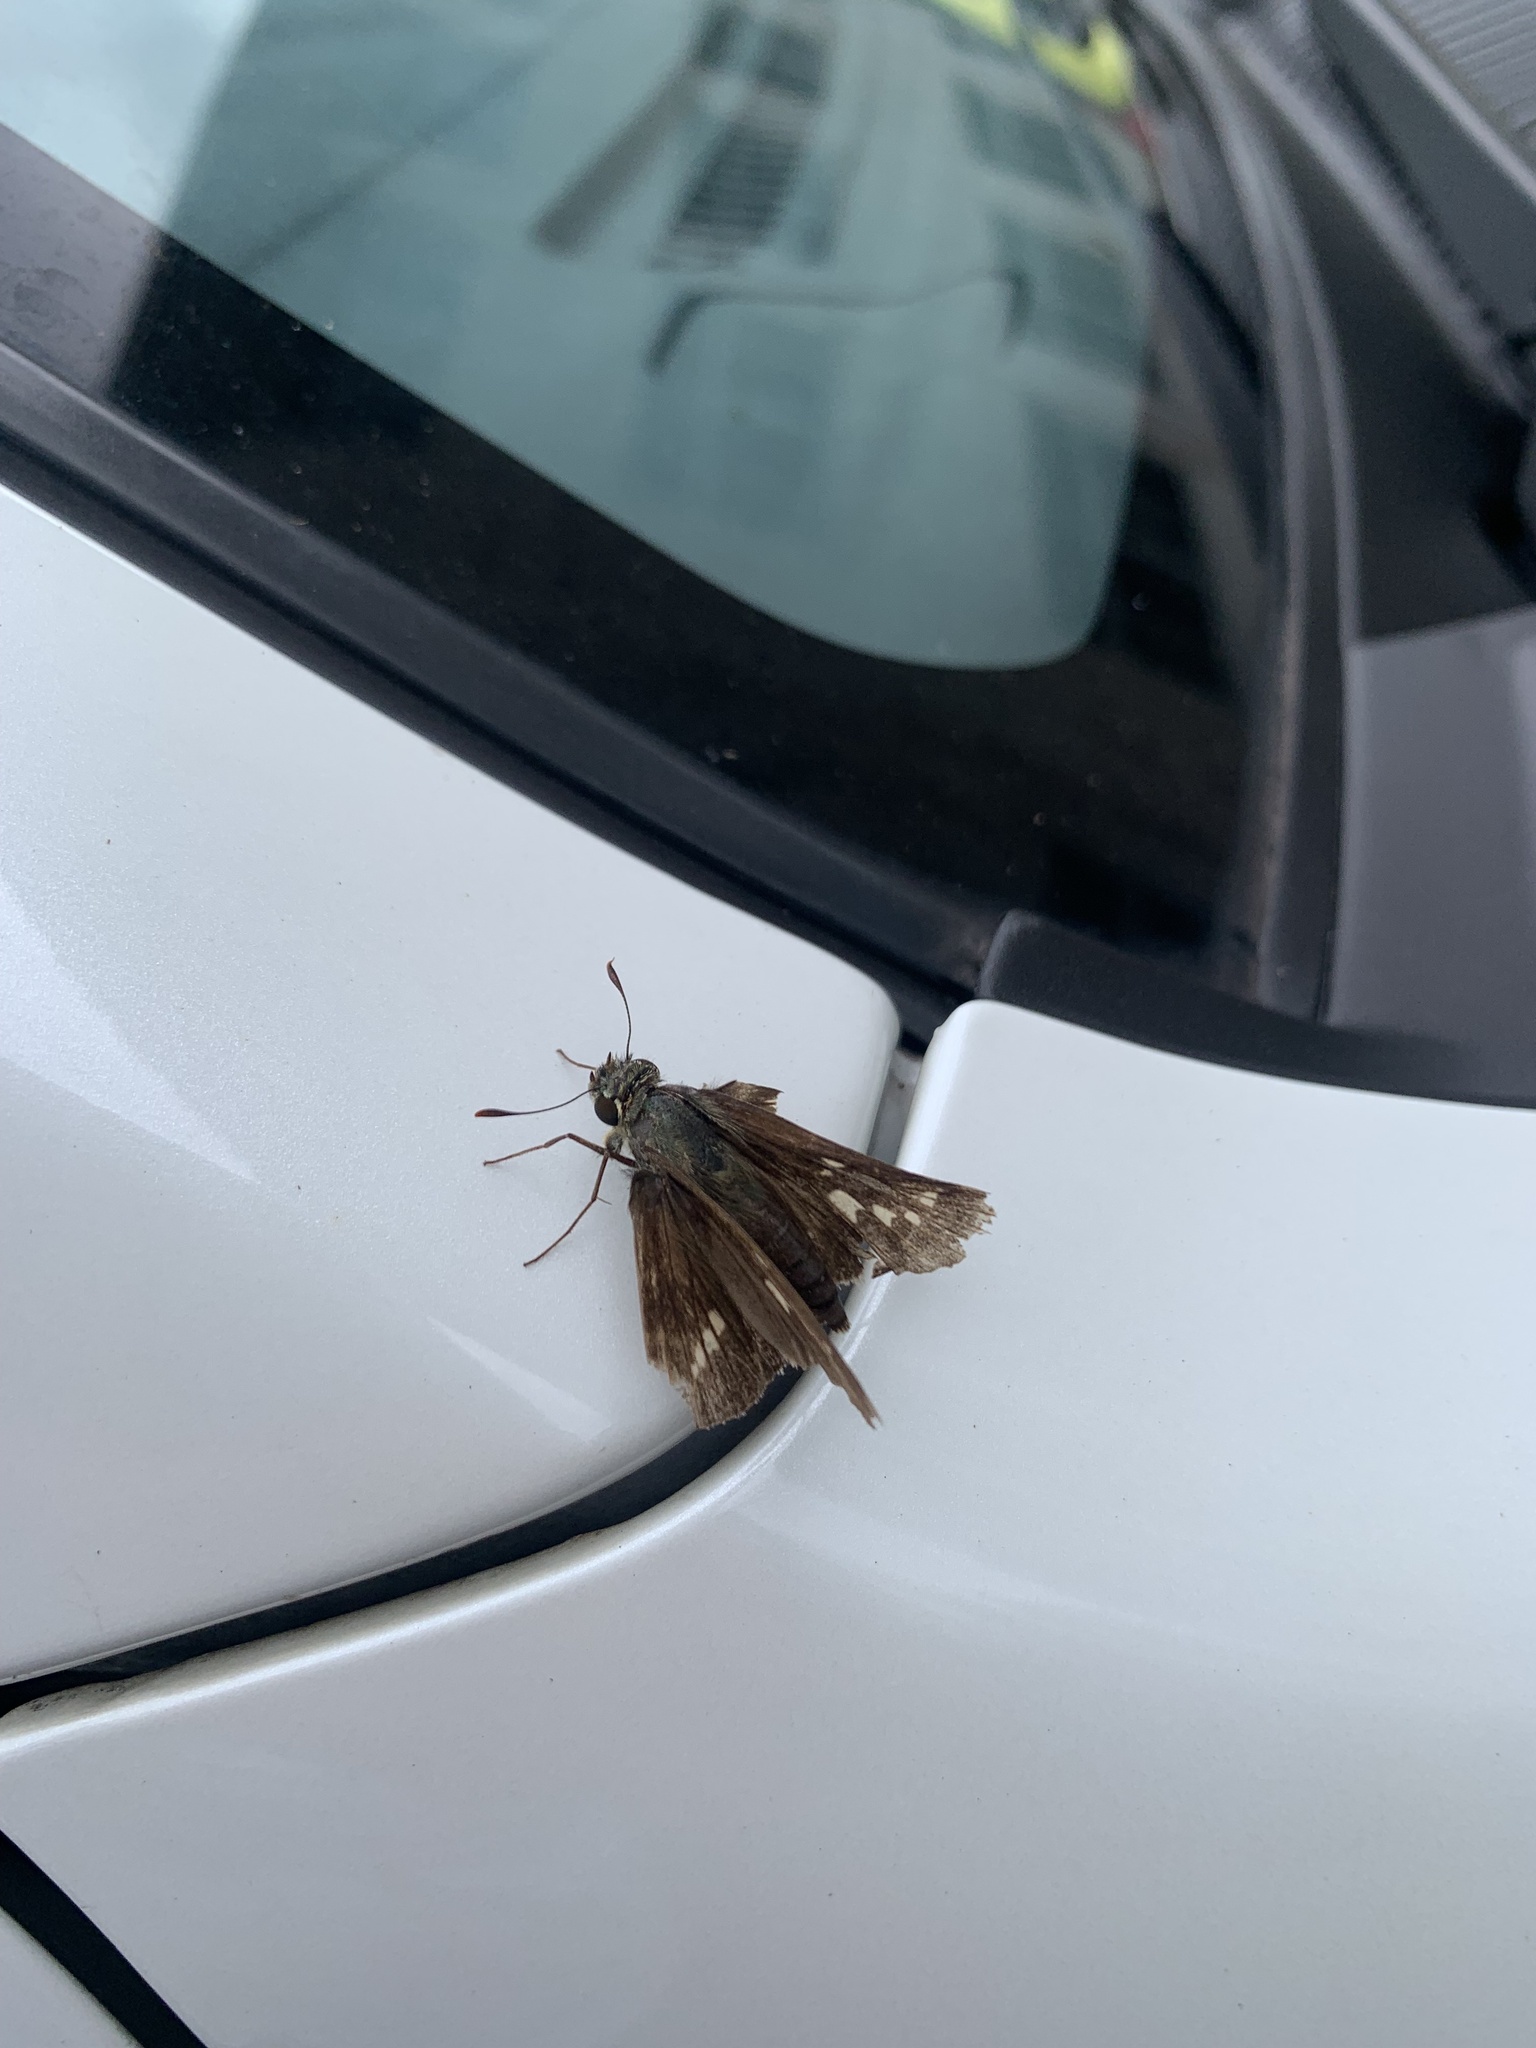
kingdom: Animalia
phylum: Arthropoda
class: Insecta
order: Lepidoptera
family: Hesperiidae
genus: Parnara
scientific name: Parnara guttatus
